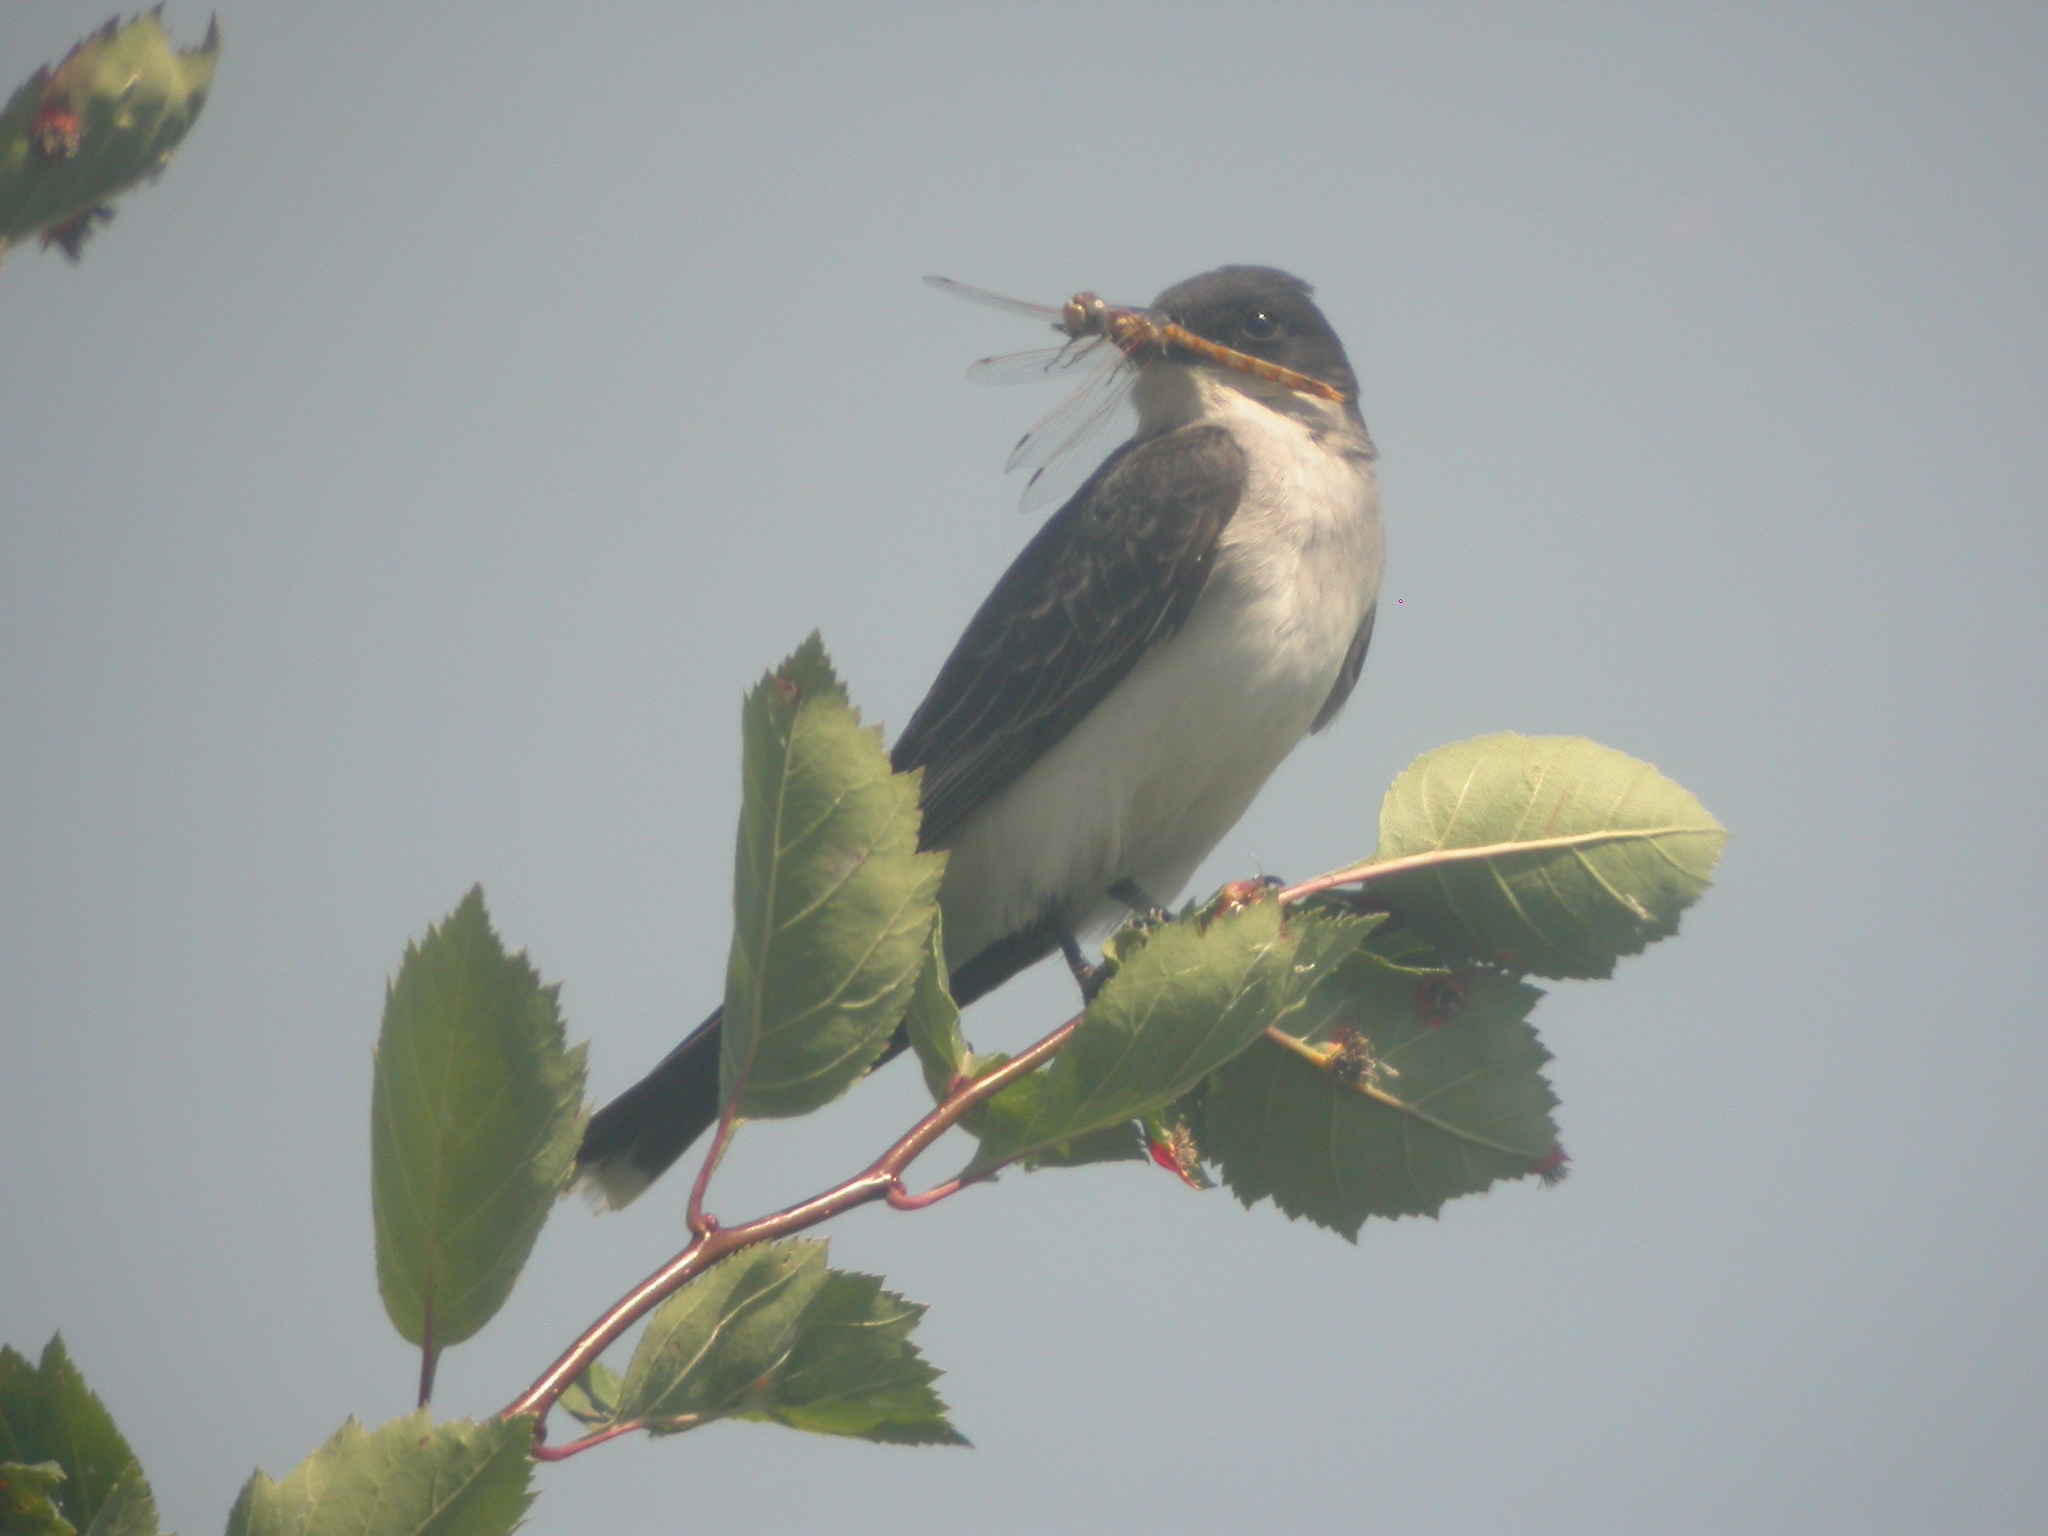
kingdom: Animalia
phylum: Chordata
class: Aves
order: Passeriformes
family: Tyrannidae
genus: Tyrannus
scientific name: Tyrannus tyrannus
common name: Eastern kingbird
